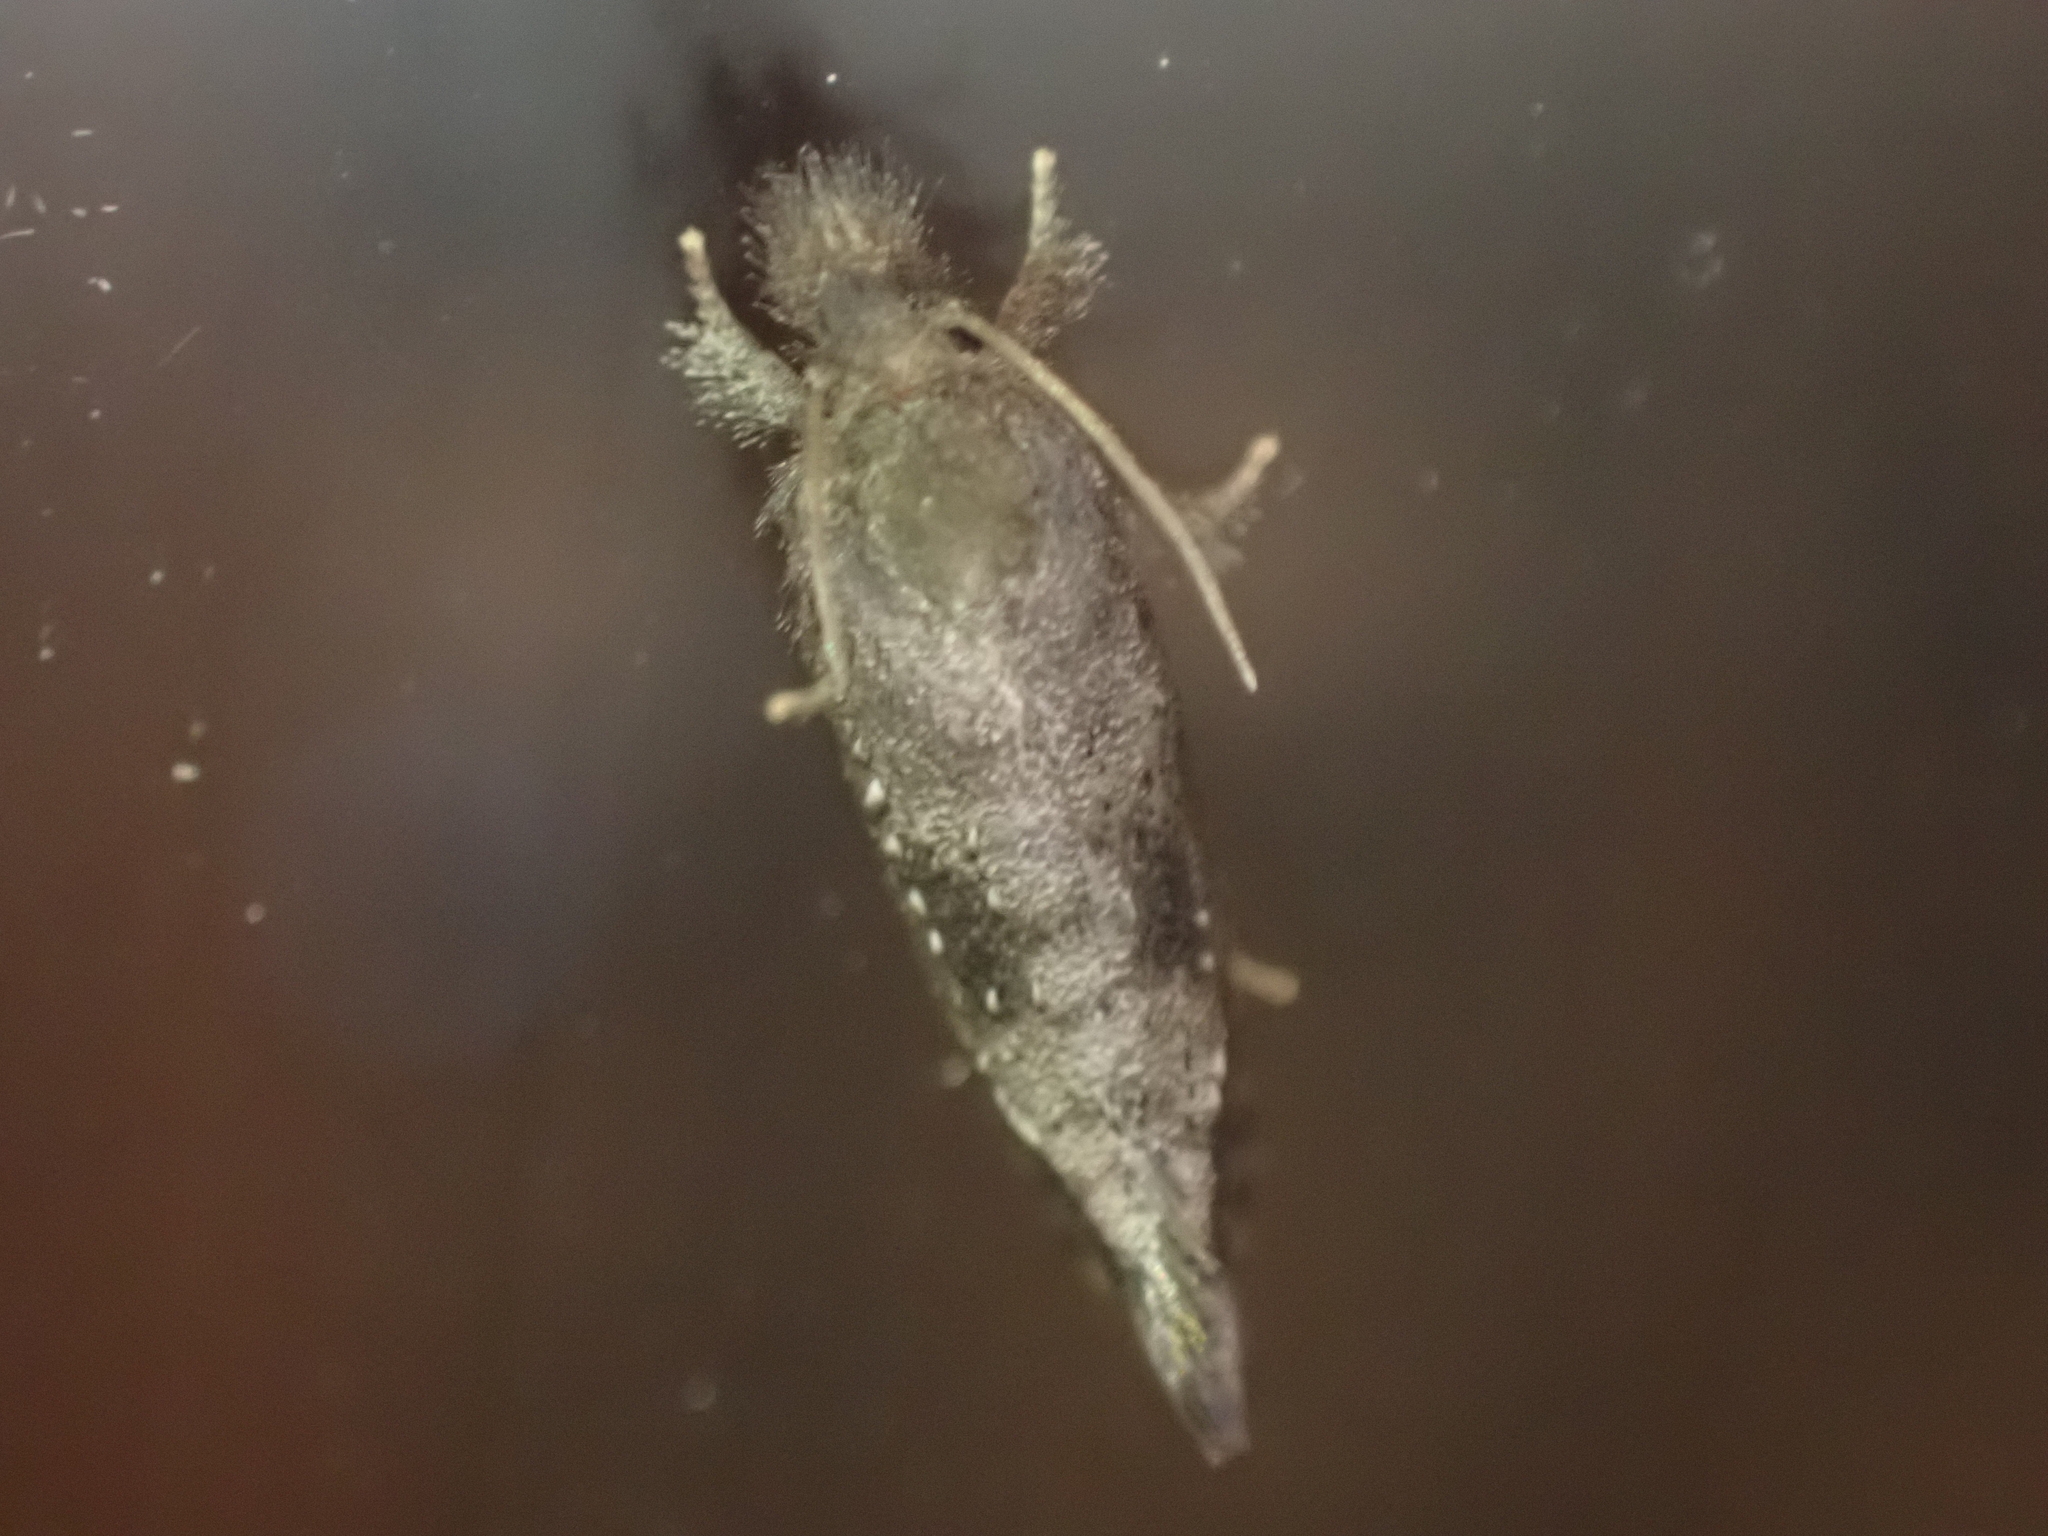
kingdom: Animalia
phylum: Arthropoda
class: Insecta
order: Lepidoptera
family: Tineidae
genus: Acrolophus
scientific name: Acrolophus texanella
